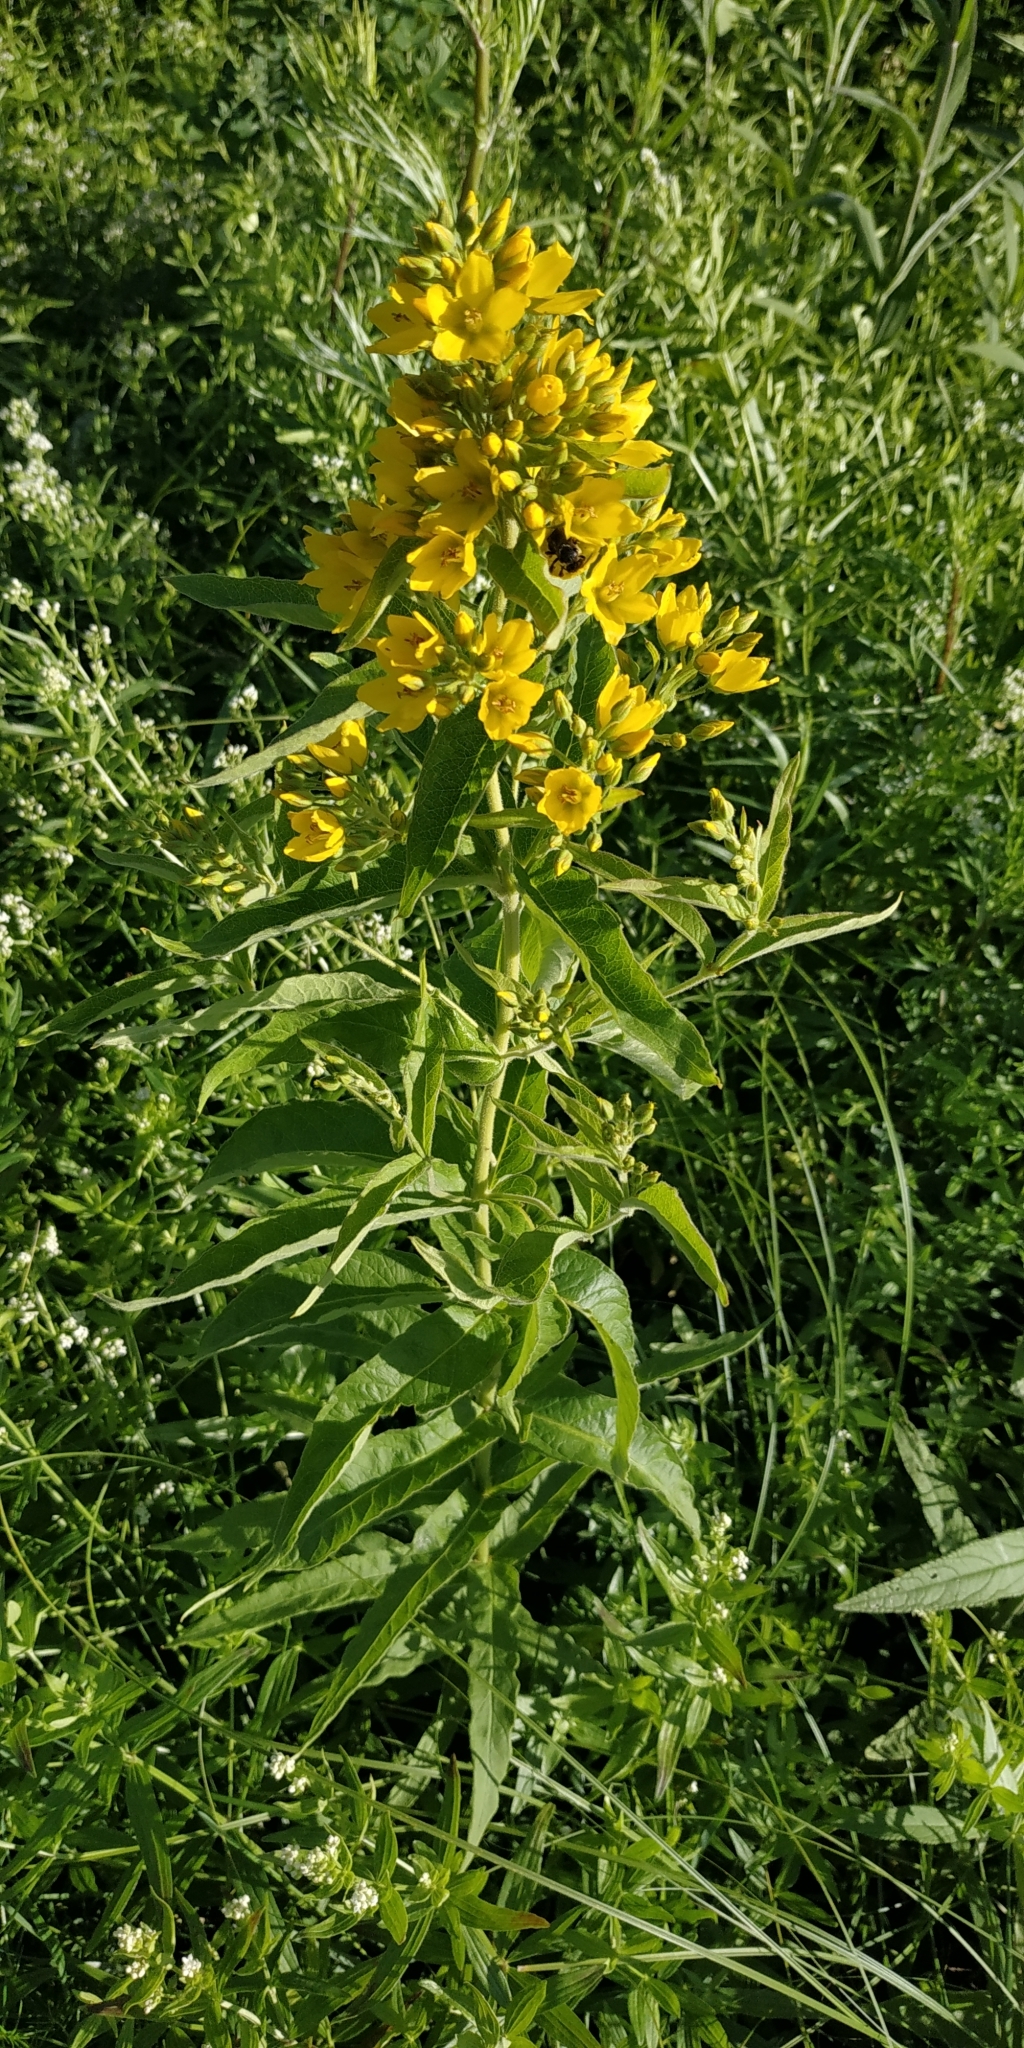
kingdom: Plantae
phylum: Tracheophyta
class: Magnoliopsida
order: Ericales
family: Primulaceae
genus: Lysimachia
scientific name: Lysimachia vulgaris
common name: Yellow loosestrife
